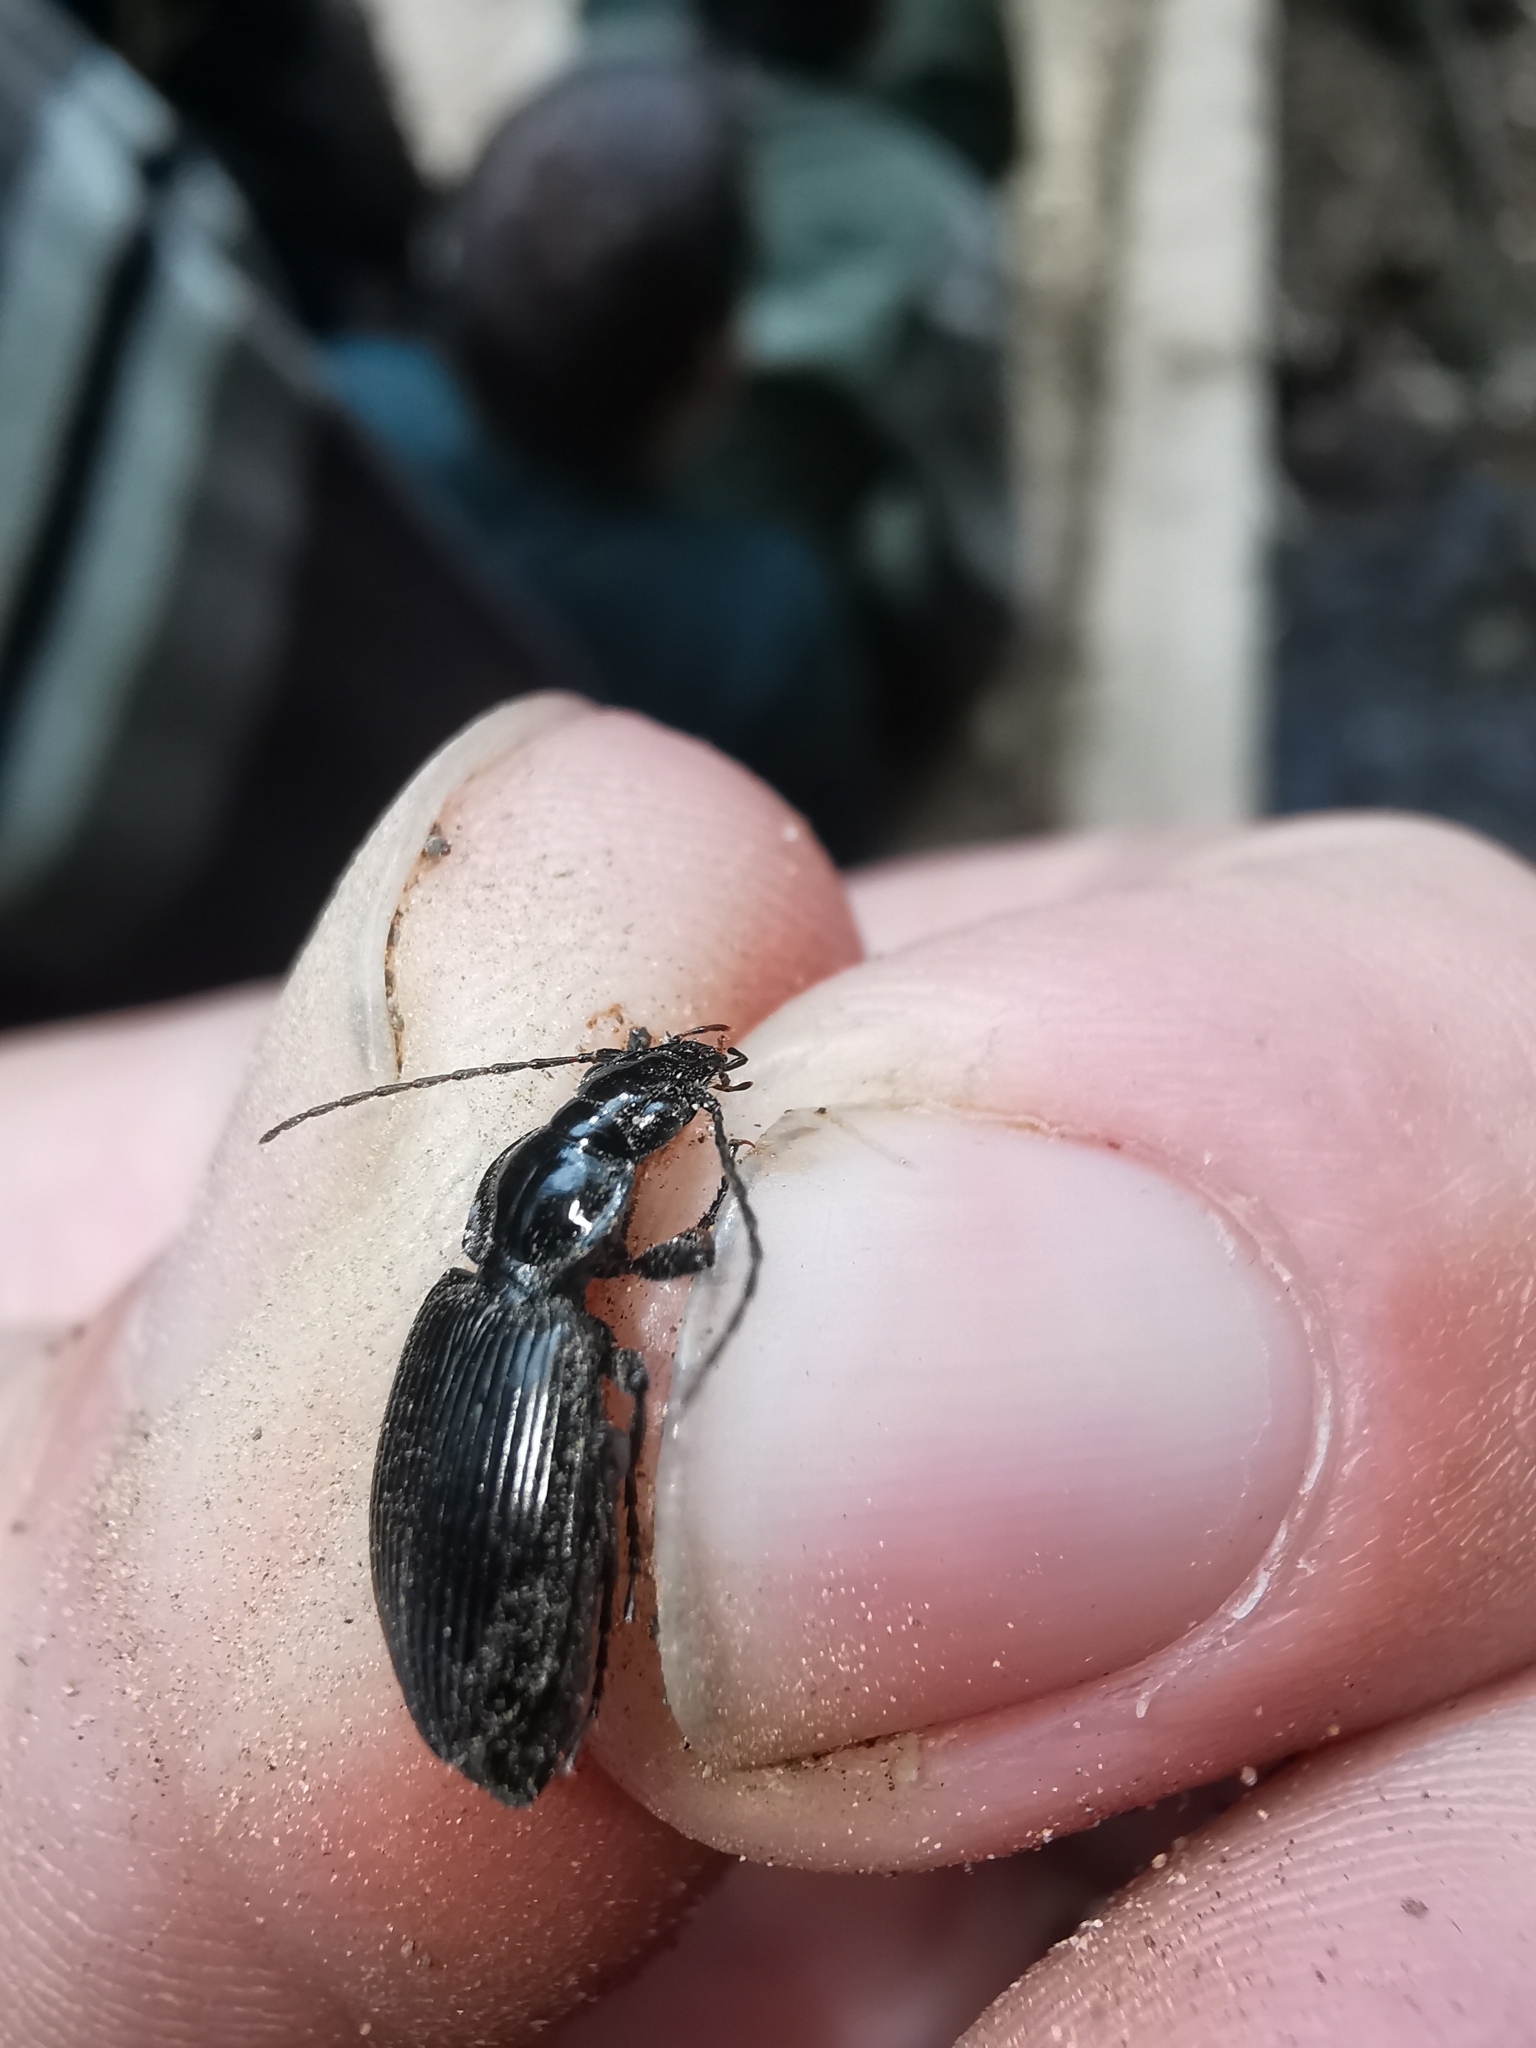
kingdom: Animalia
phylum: Arthropoda
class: Insecta
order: Coleoptera
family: Carabidae
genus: Platynus
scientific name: Platynus assimilis
